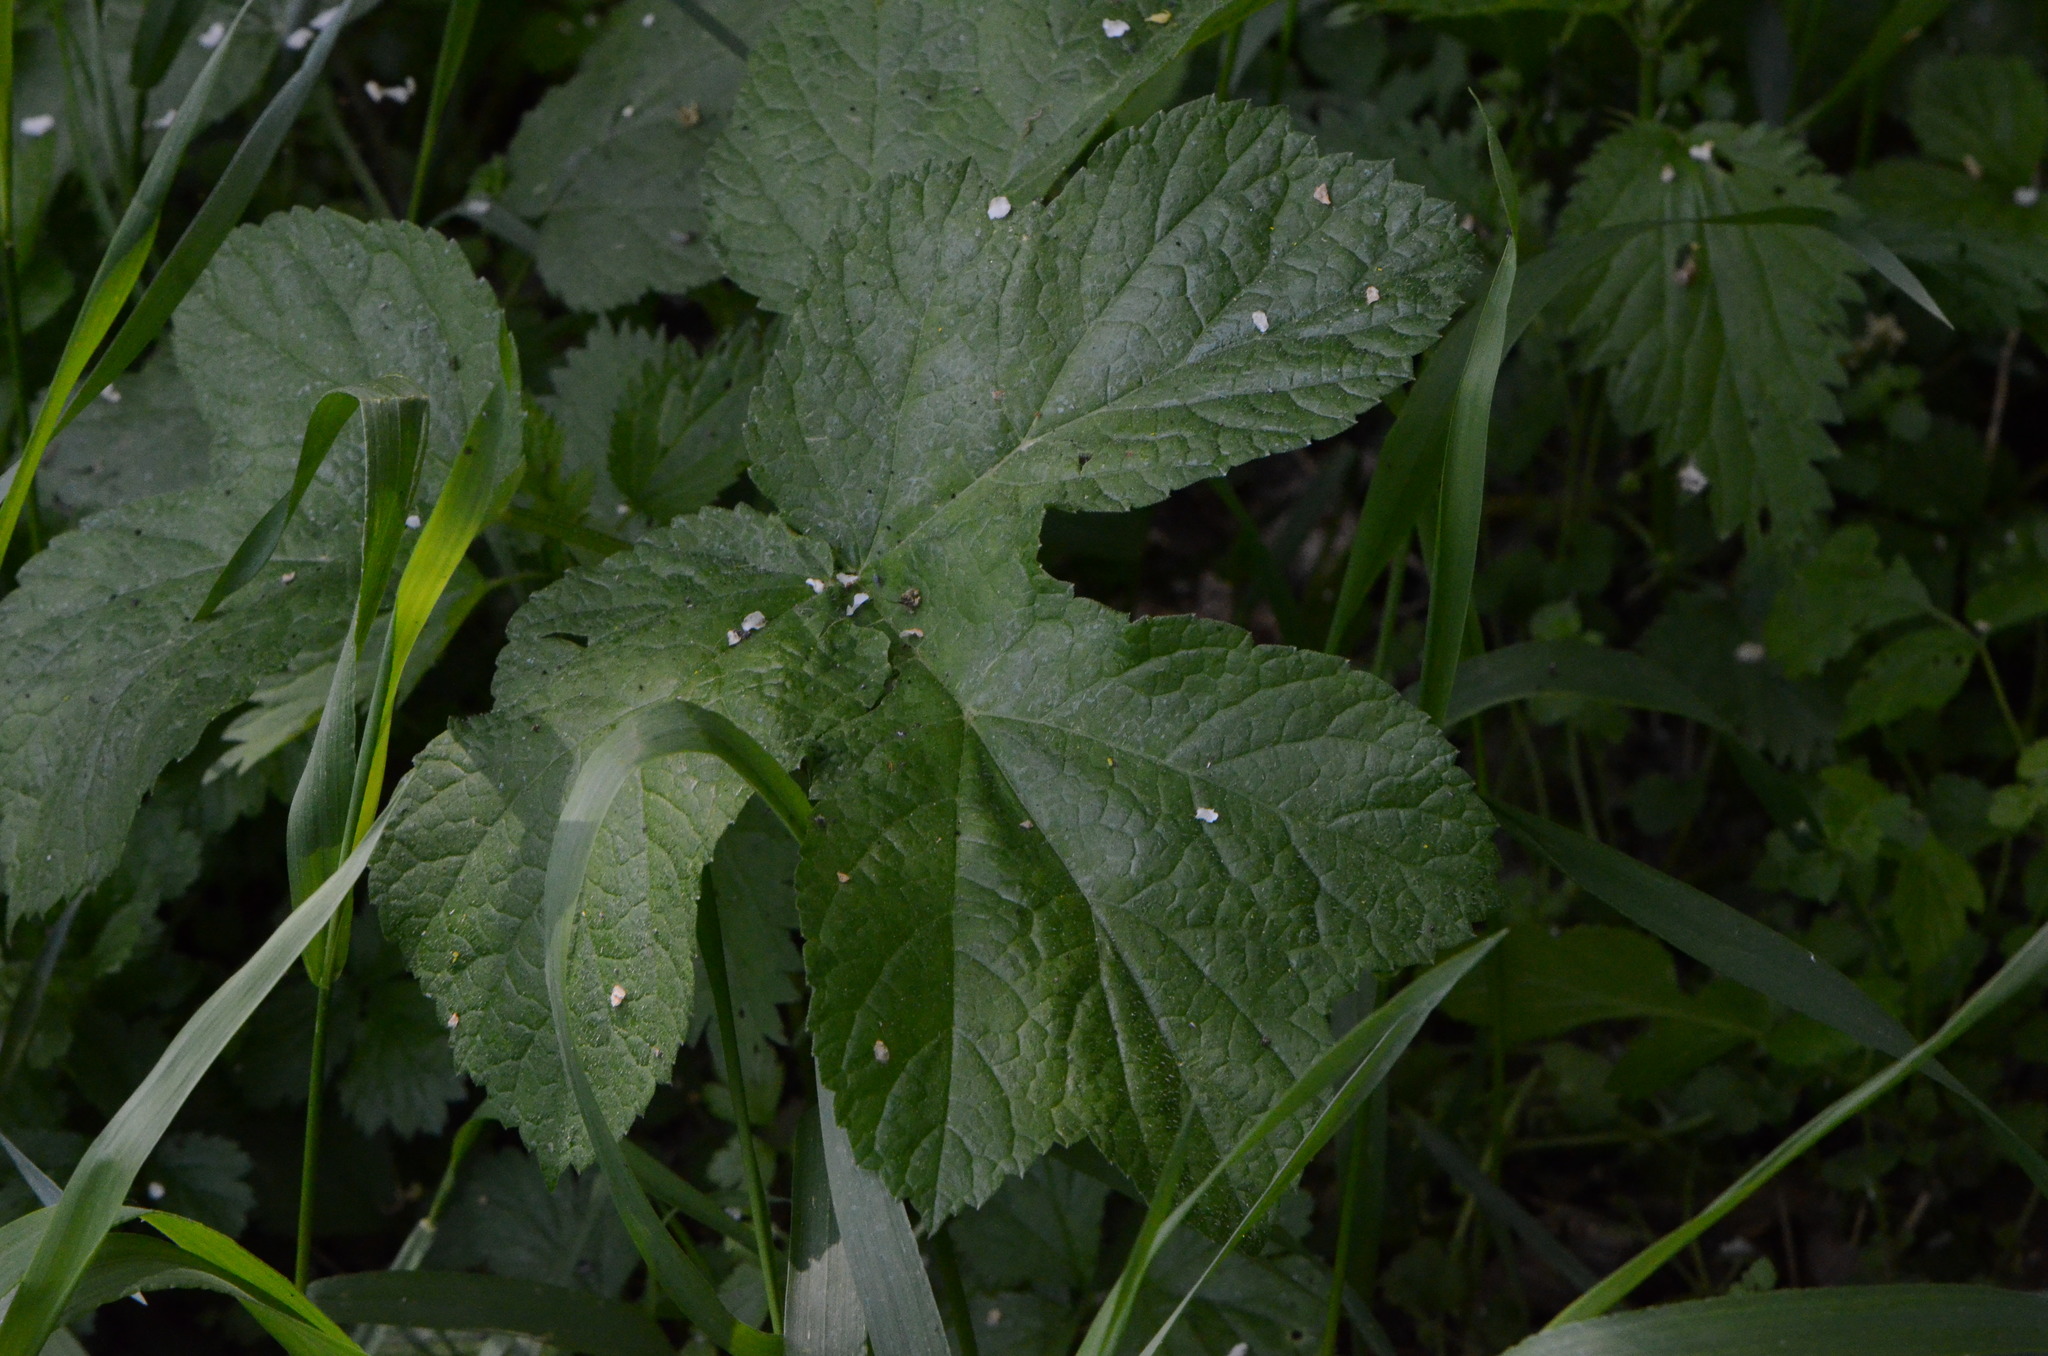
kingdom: Plantae
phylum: Tracheophyta
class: Magnoliopsida
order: Apiales
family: Apiaceae
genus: Heracleum
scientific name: Heracleum sphondylium
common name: Hogweed
